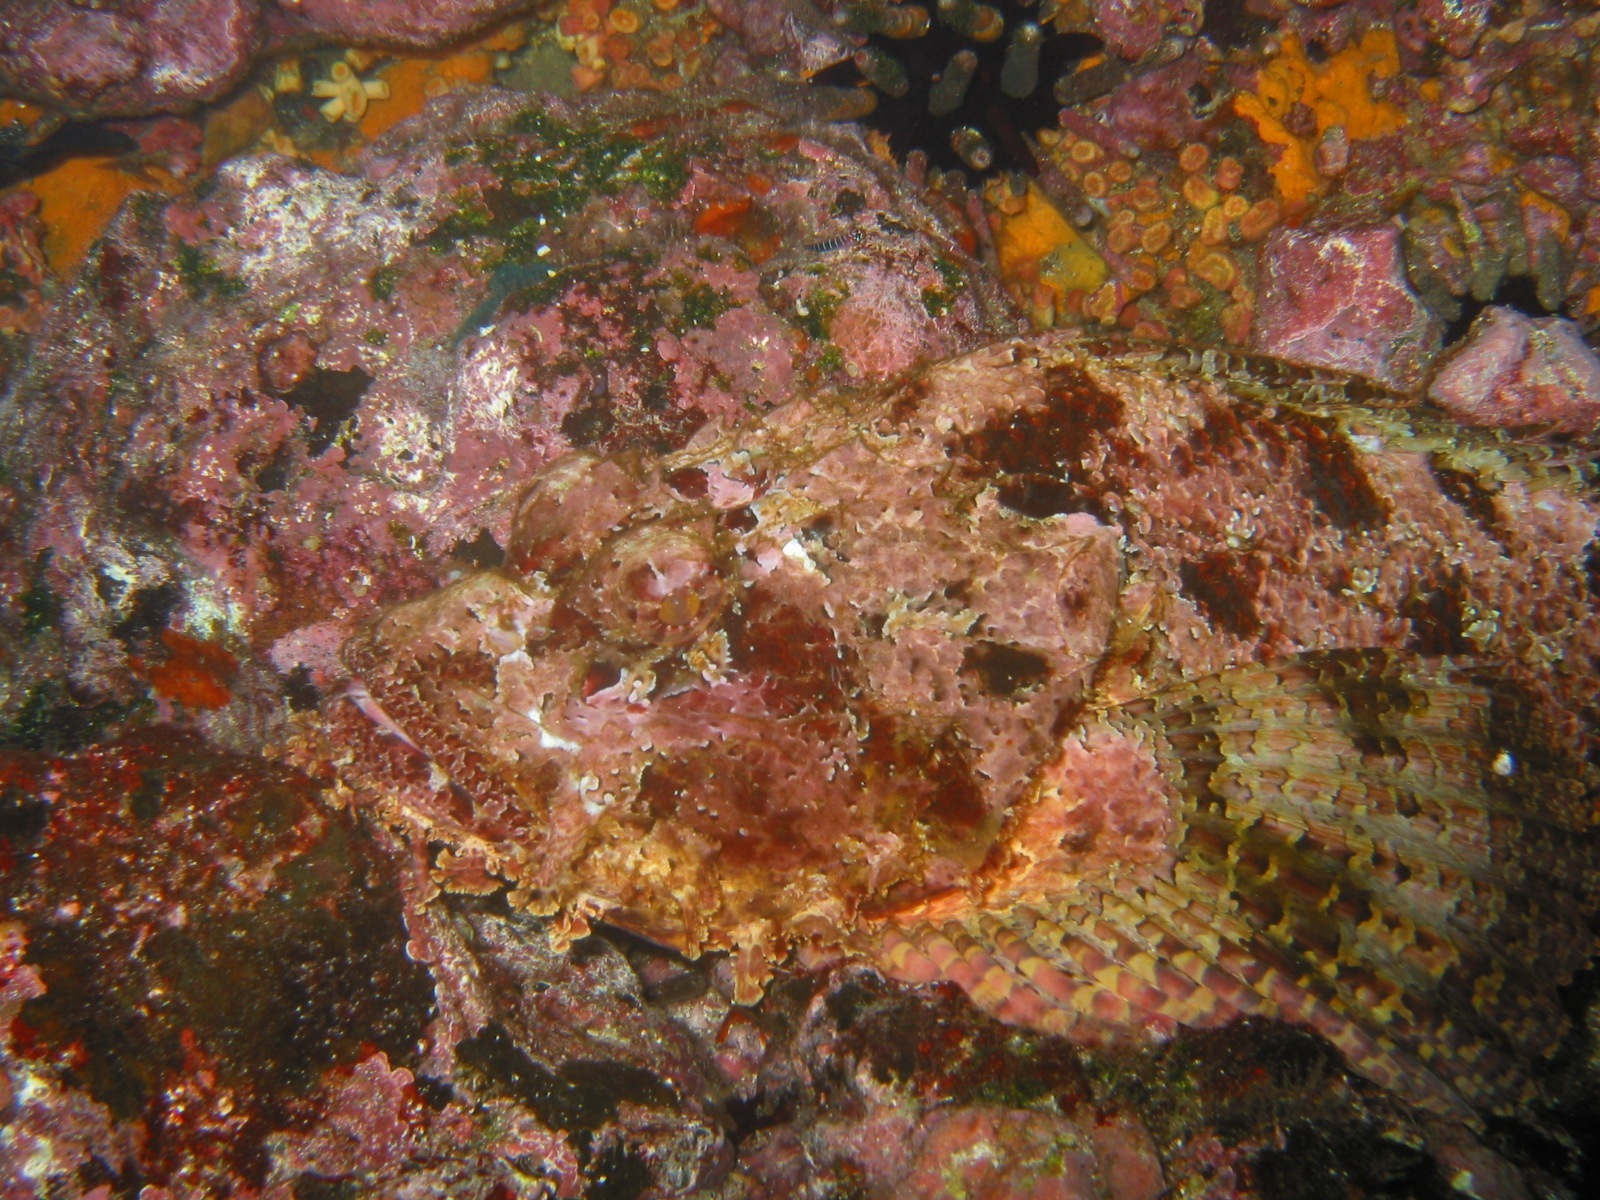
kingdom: Animalia
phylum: Chordata
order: Scorpaeniformes
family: Scorpaenidae
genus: Scorpaena
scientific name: Scorpaena mystes
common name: Pacific spotted scorpionfish
